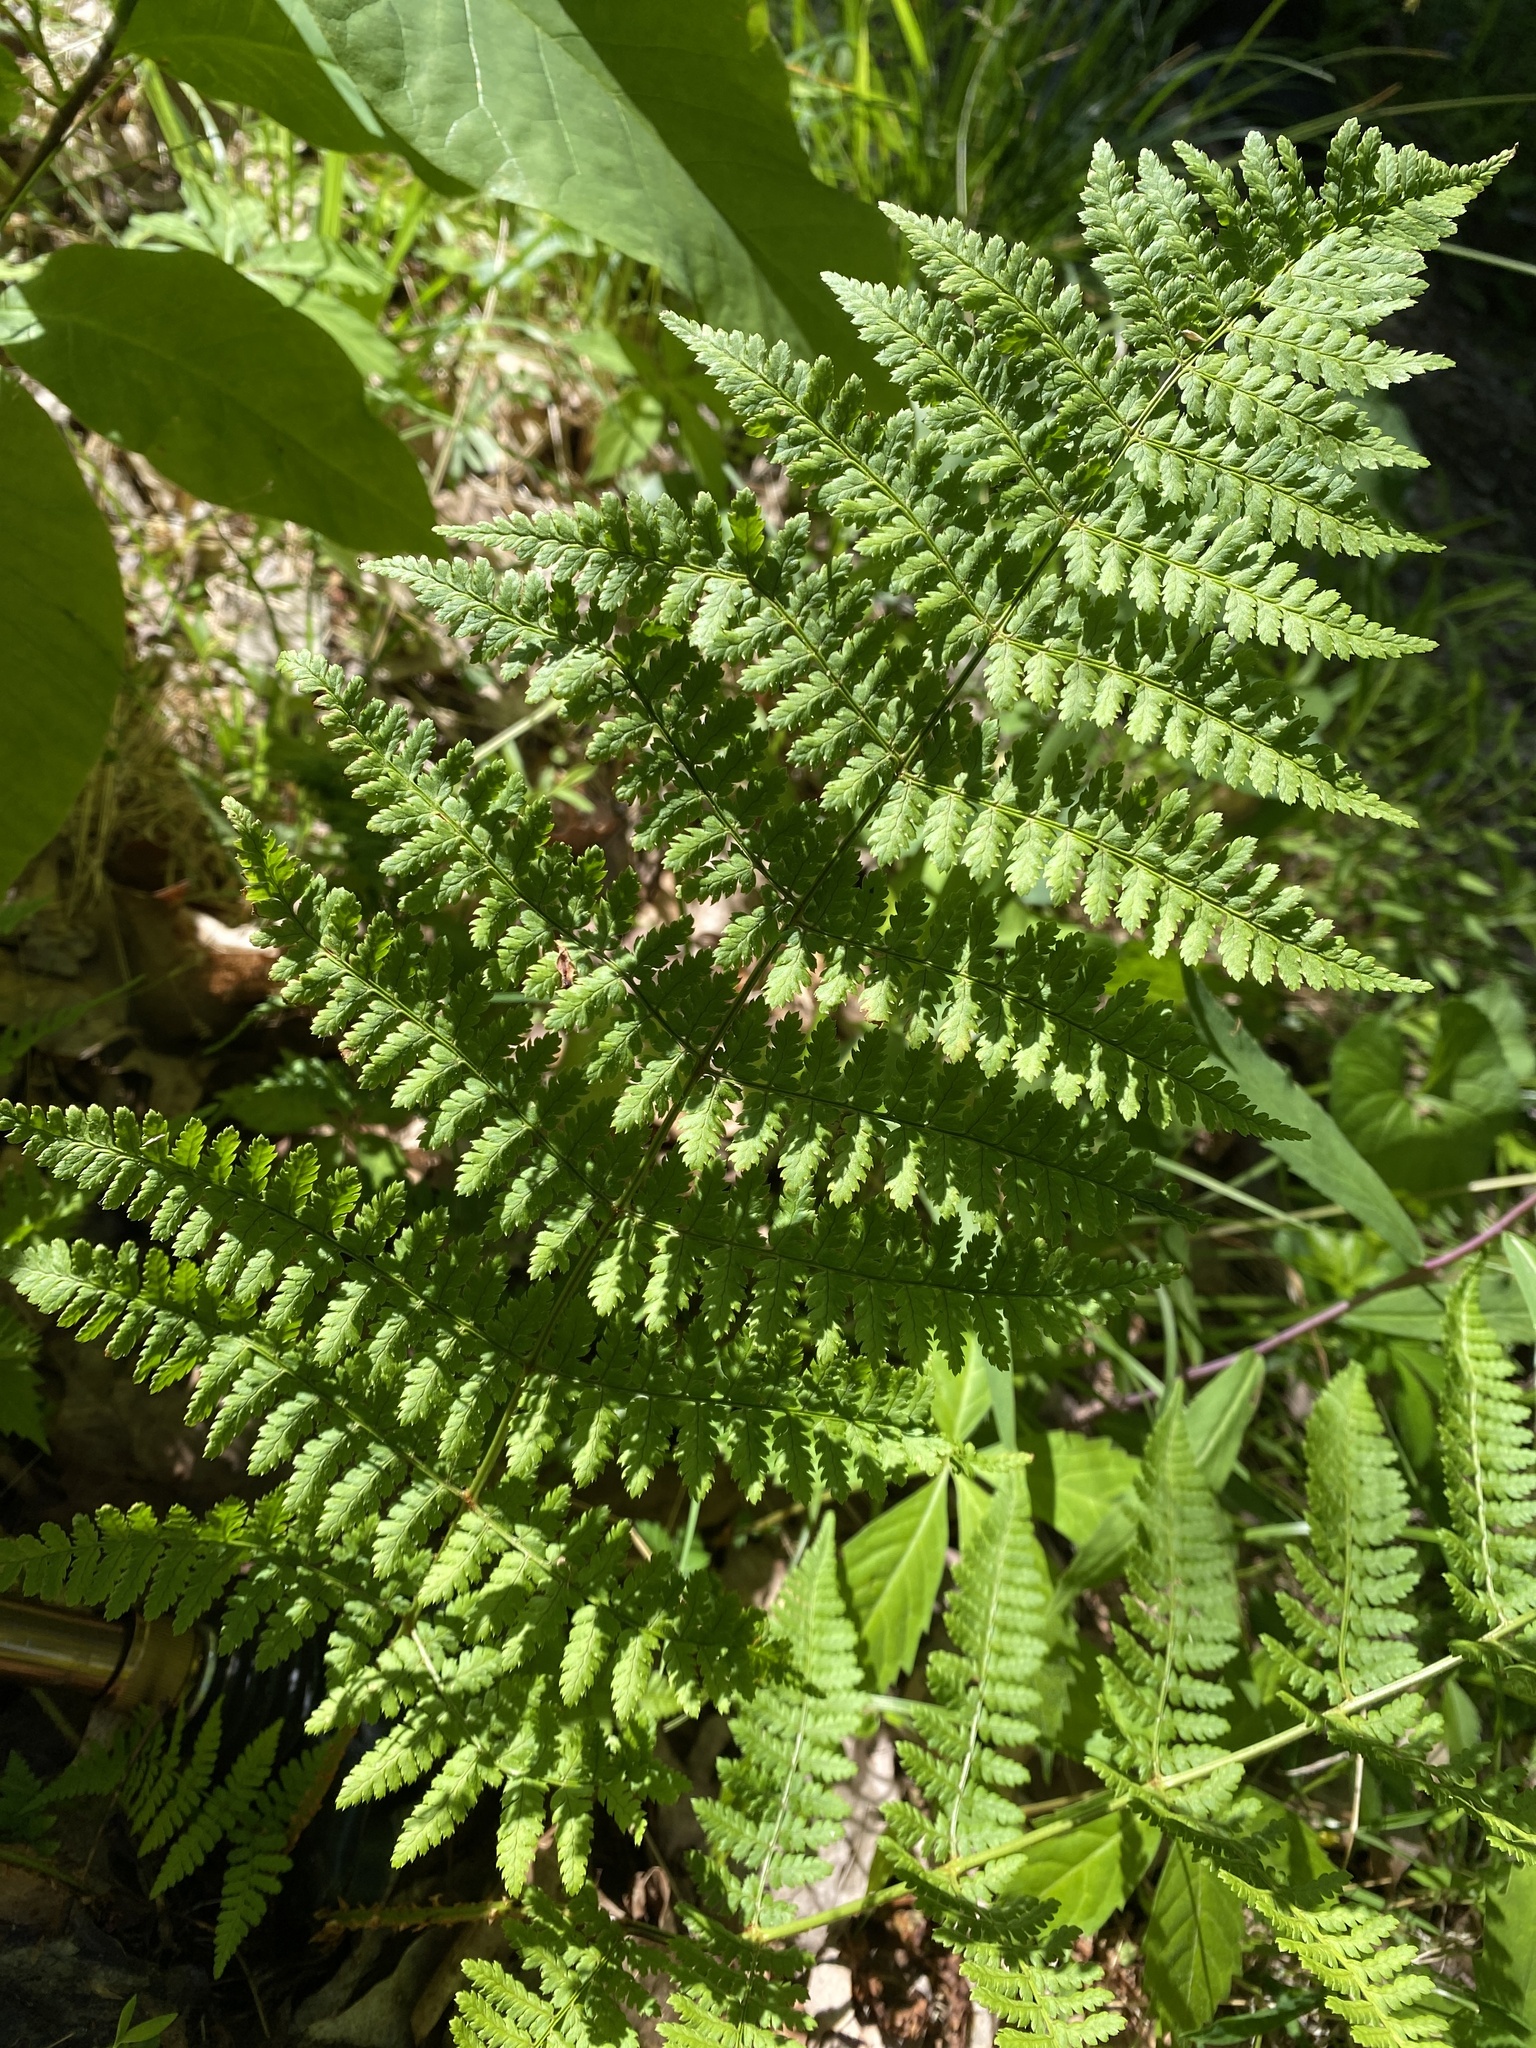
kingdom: Plantae
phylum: Tracheophyta
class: Polypodiopsida
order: Polypodiales
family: Dryopteridaceae
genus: Dryopteris
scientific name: Dryopteris intermedia
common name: Evergreen wood fern
